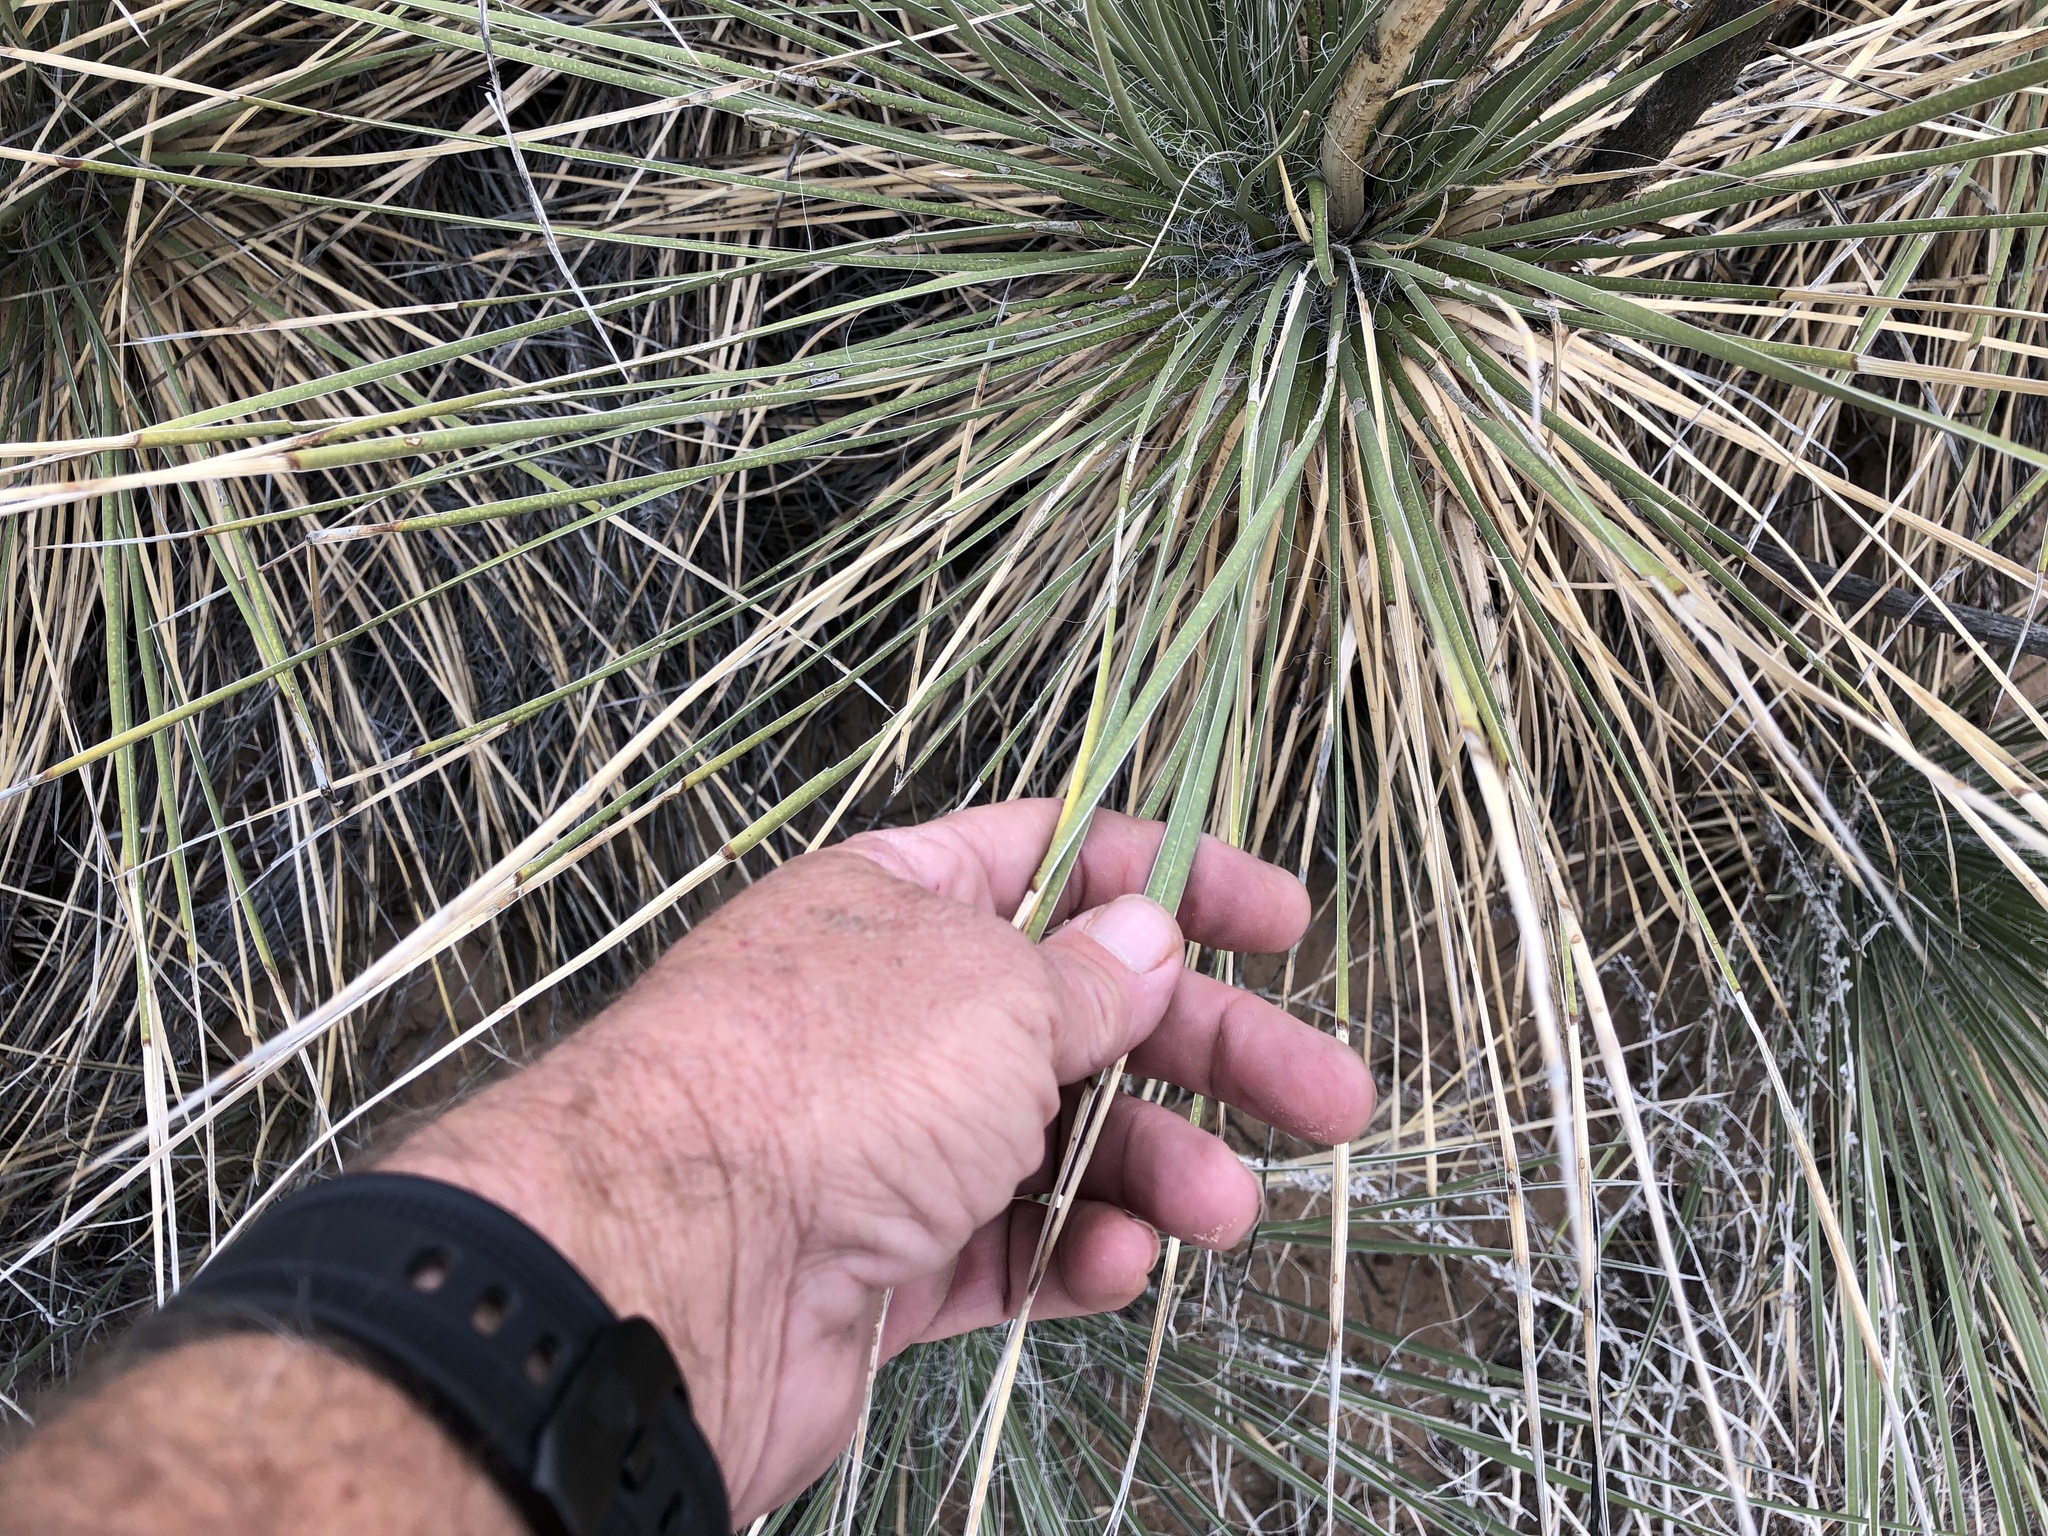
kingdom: Plantae
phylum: Tracheophyta
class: Liliopsida
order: Asparagales
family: Asparagaceae
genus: Yucca
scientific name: Yucca elata
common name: Palmella
